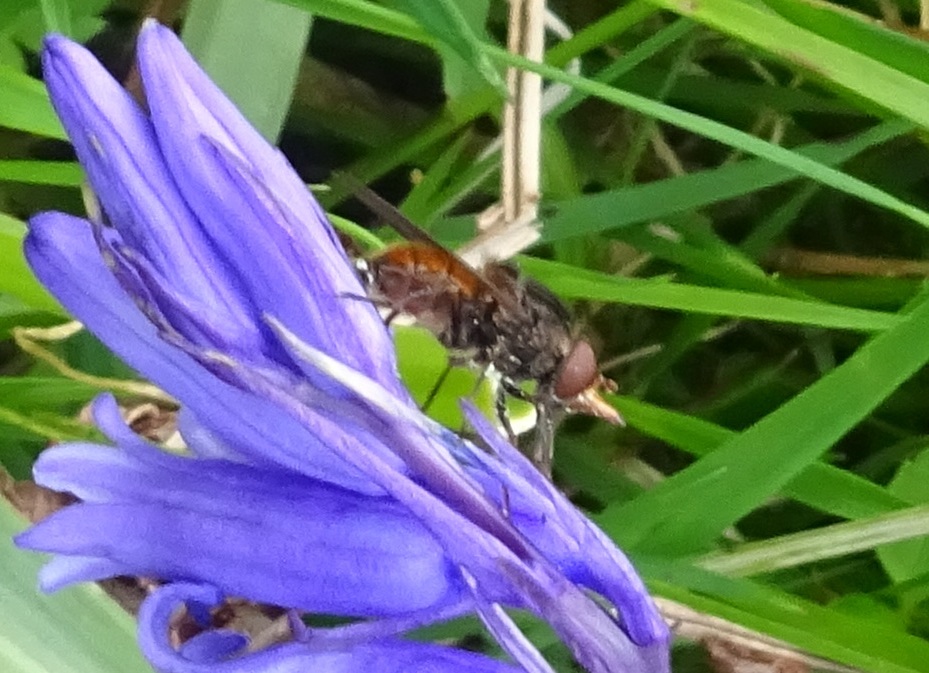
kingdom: Animalia
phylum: Arthropoda
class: Insecta
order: Diptera
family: Syrphidae
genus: Rhingia
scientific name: Rhingia campestris
